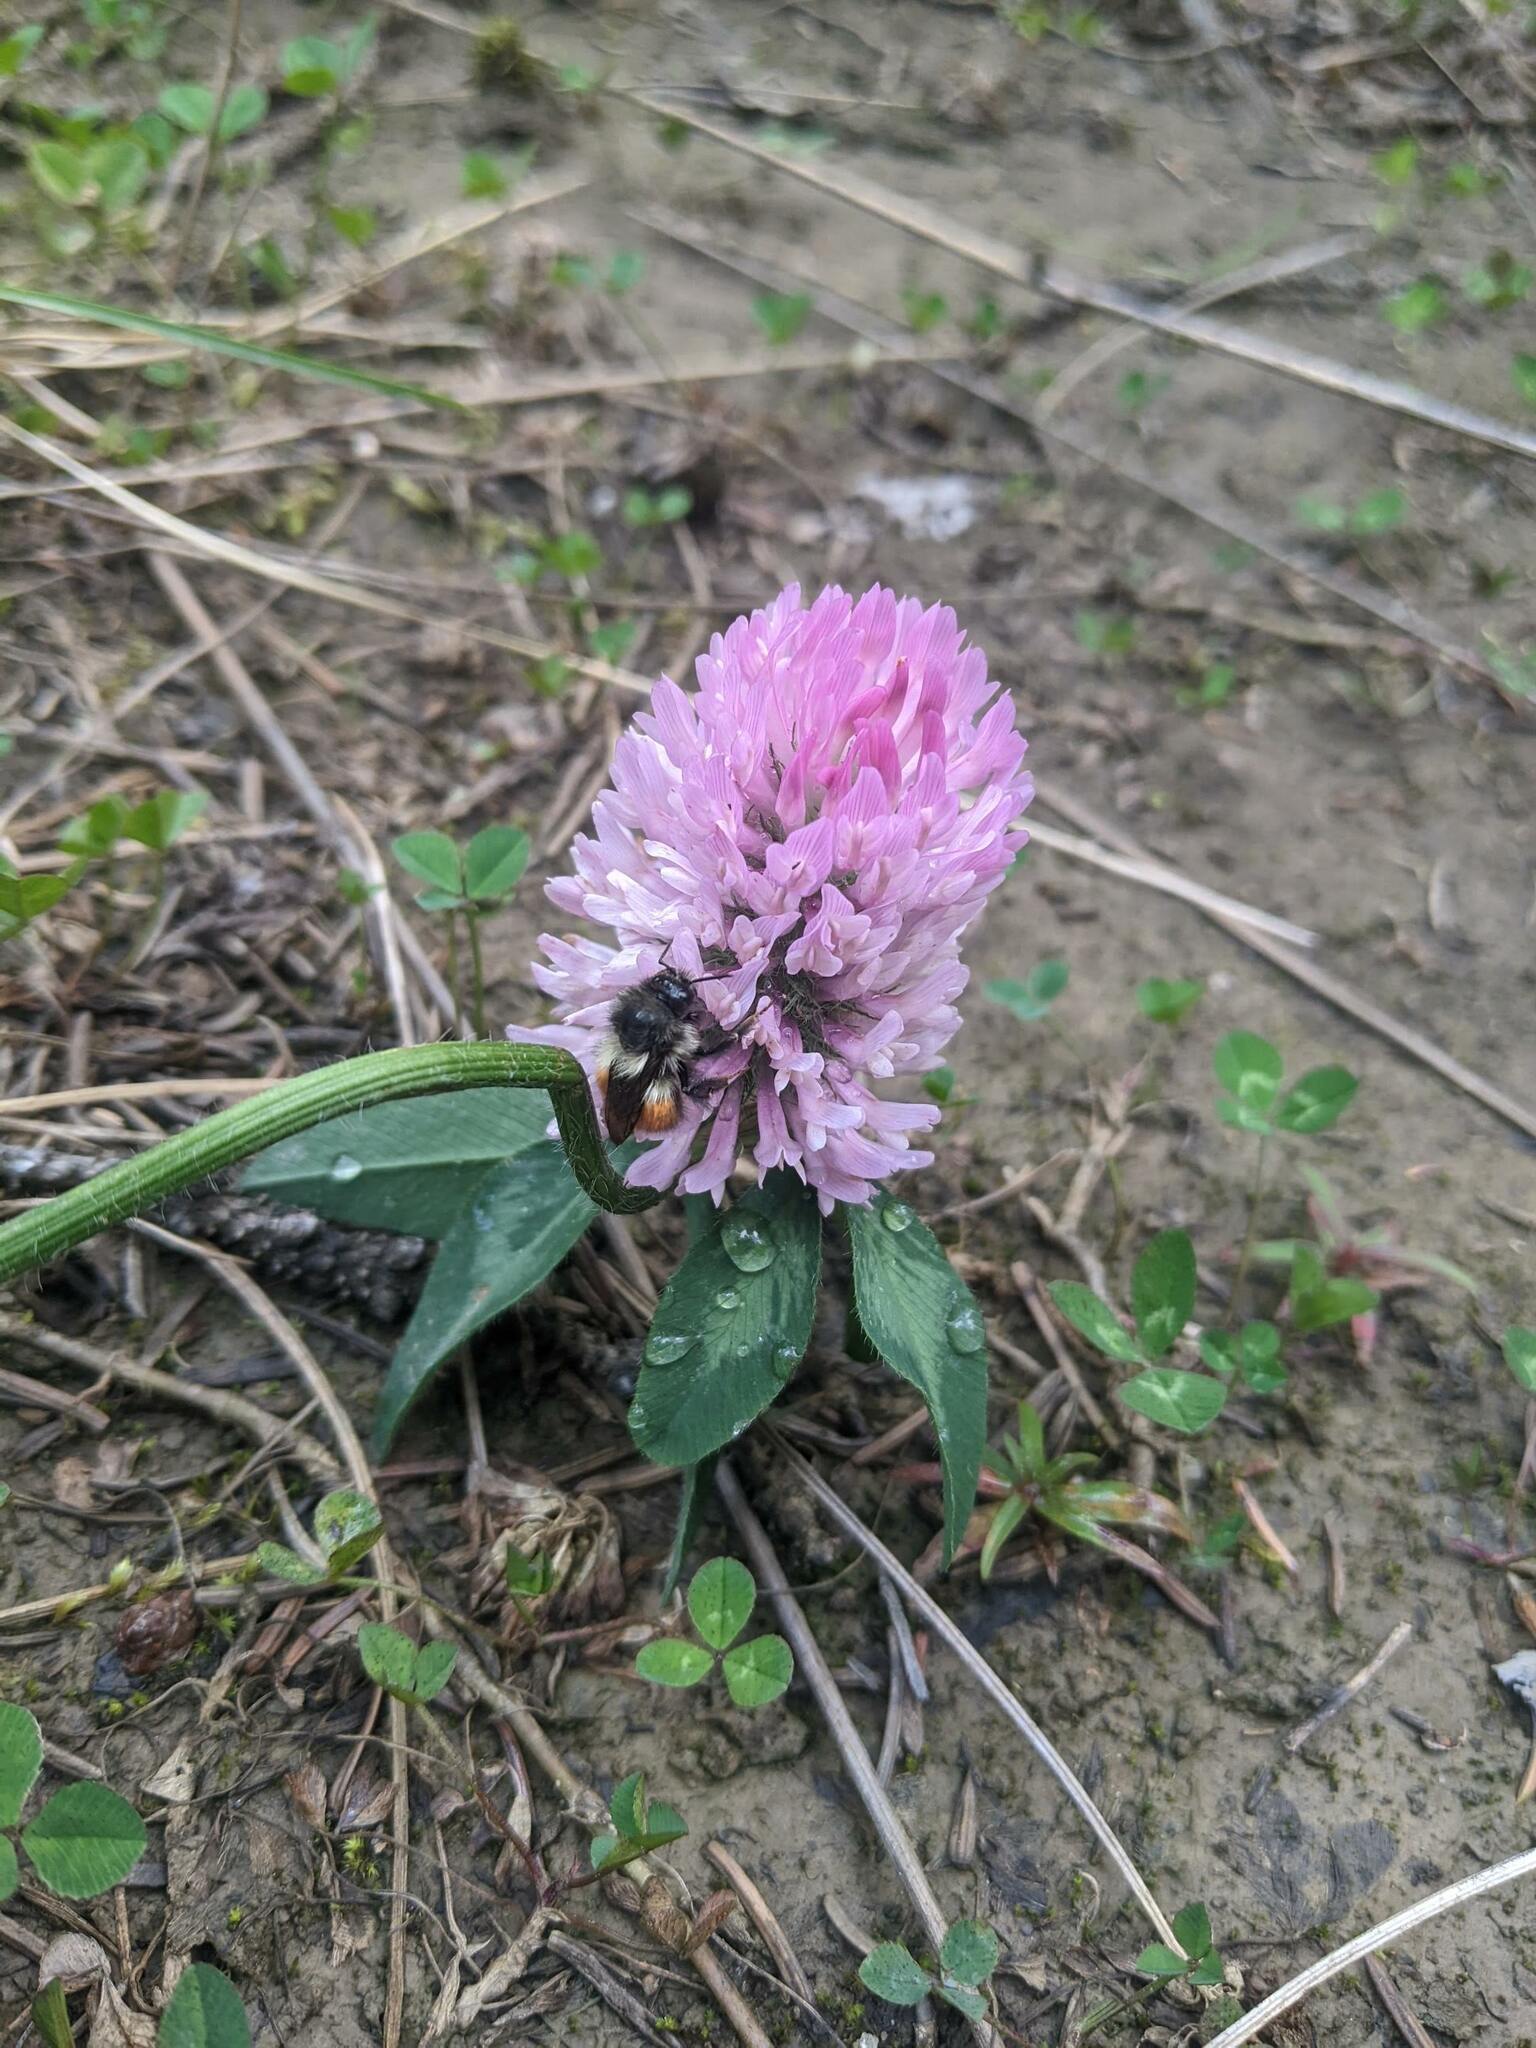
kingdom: Plantae
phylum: Tracheophyta
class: Magnoliopsida
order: Fabales
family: Fabaceae
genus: Trifolium
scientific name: Trifolium pratense
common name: Red clover
